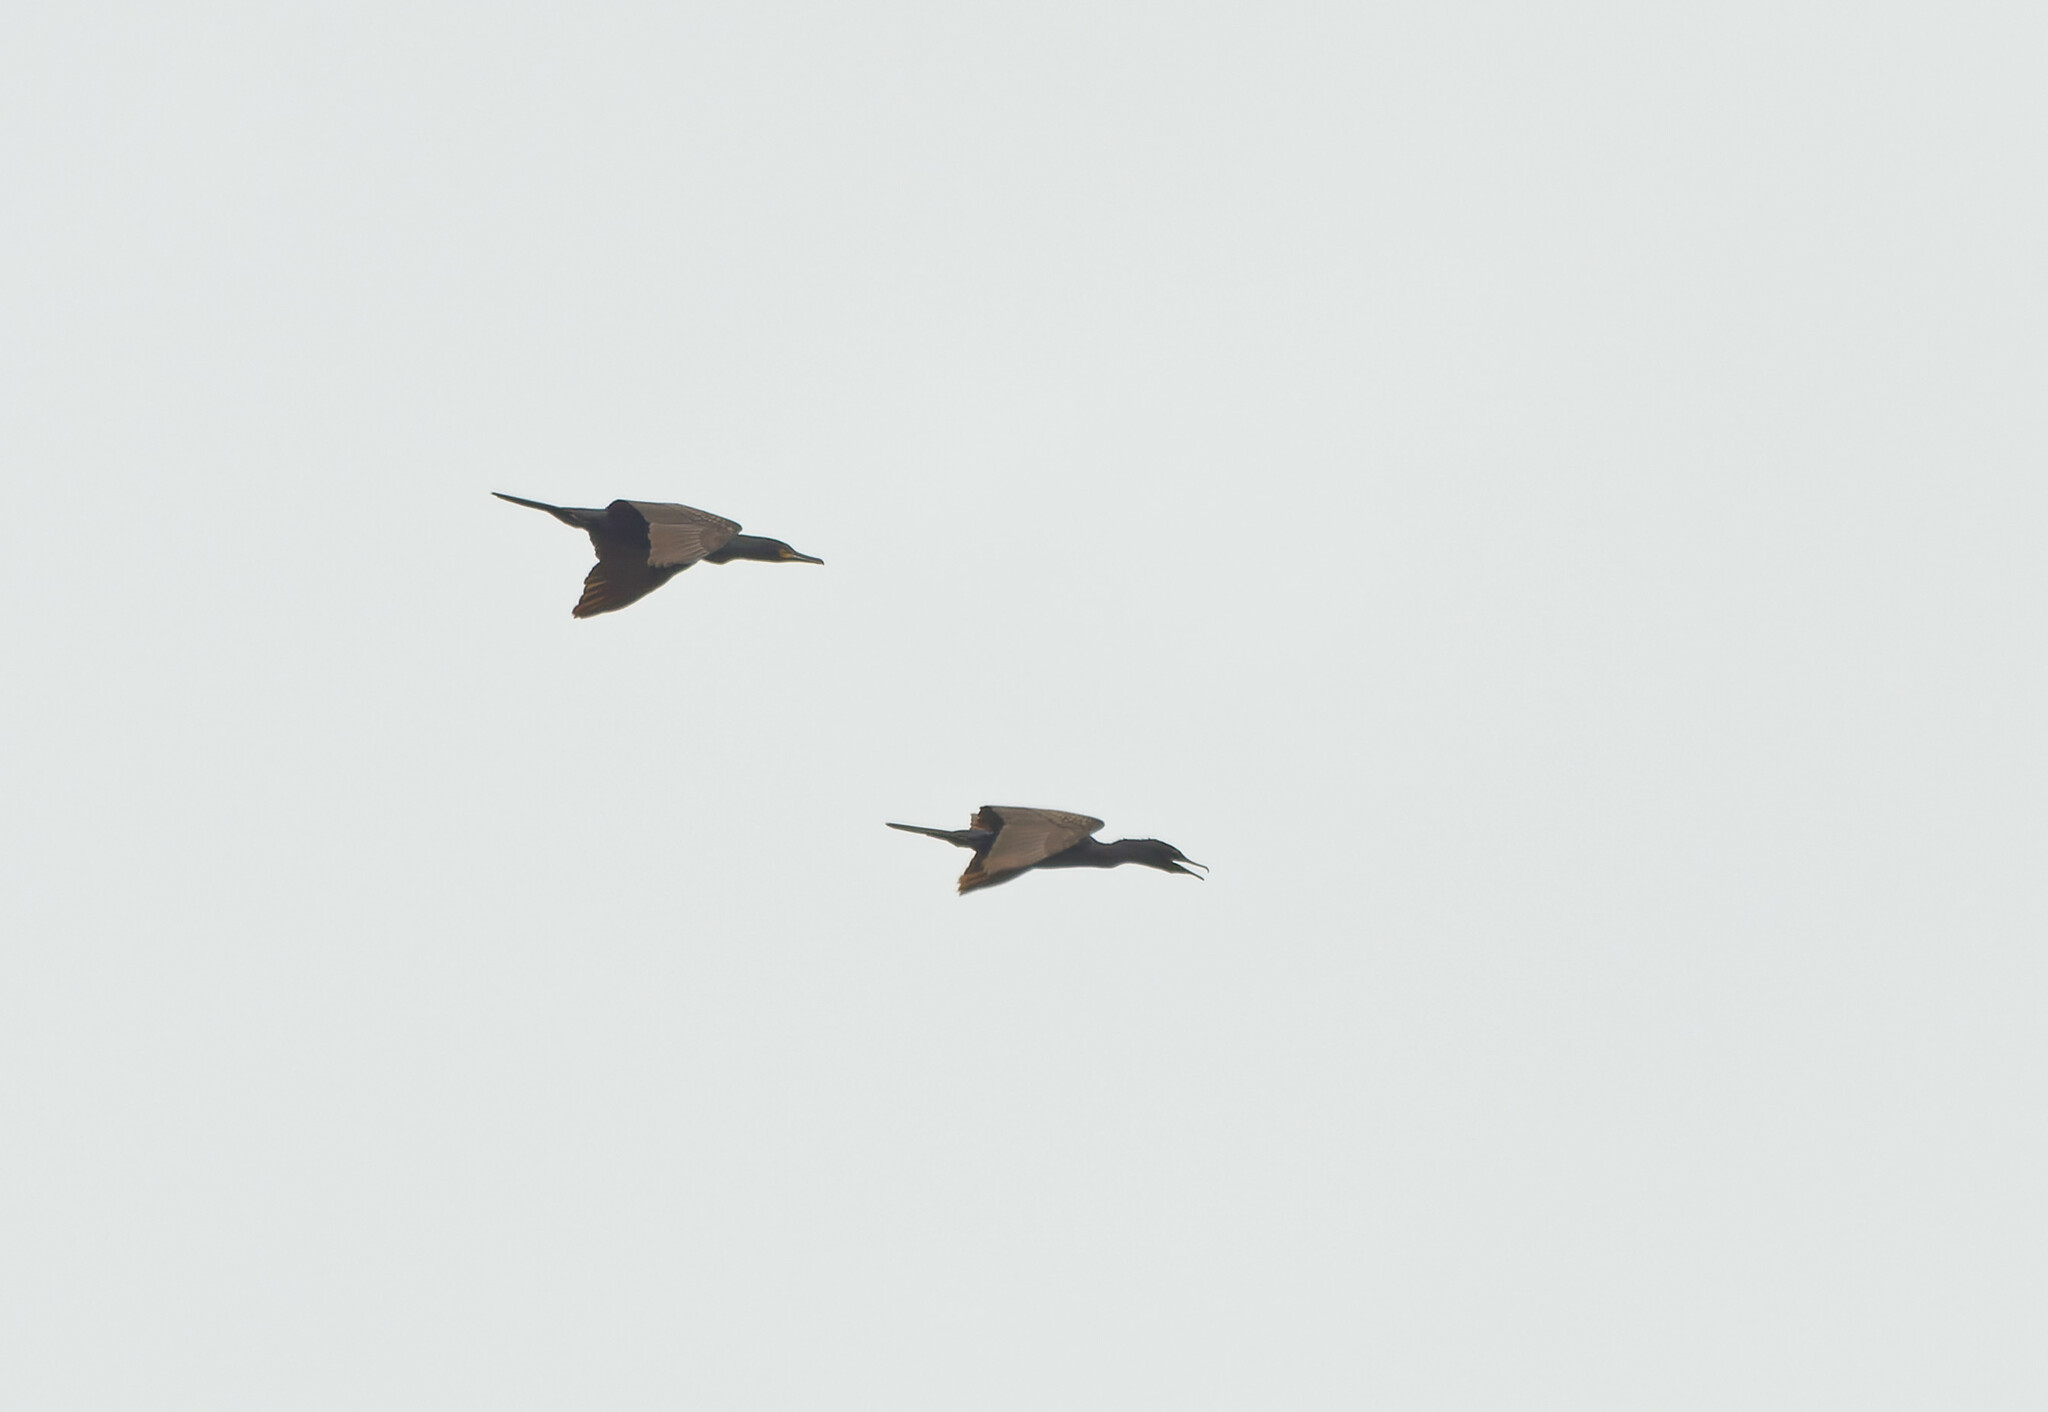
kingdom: Animalia
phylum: Chordata
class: Aves
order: Suliformes
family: Phalacrocoracidae
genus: Phalacrocorax
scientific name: Phalacrocorax fuscicollis
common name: Indian cormorant
